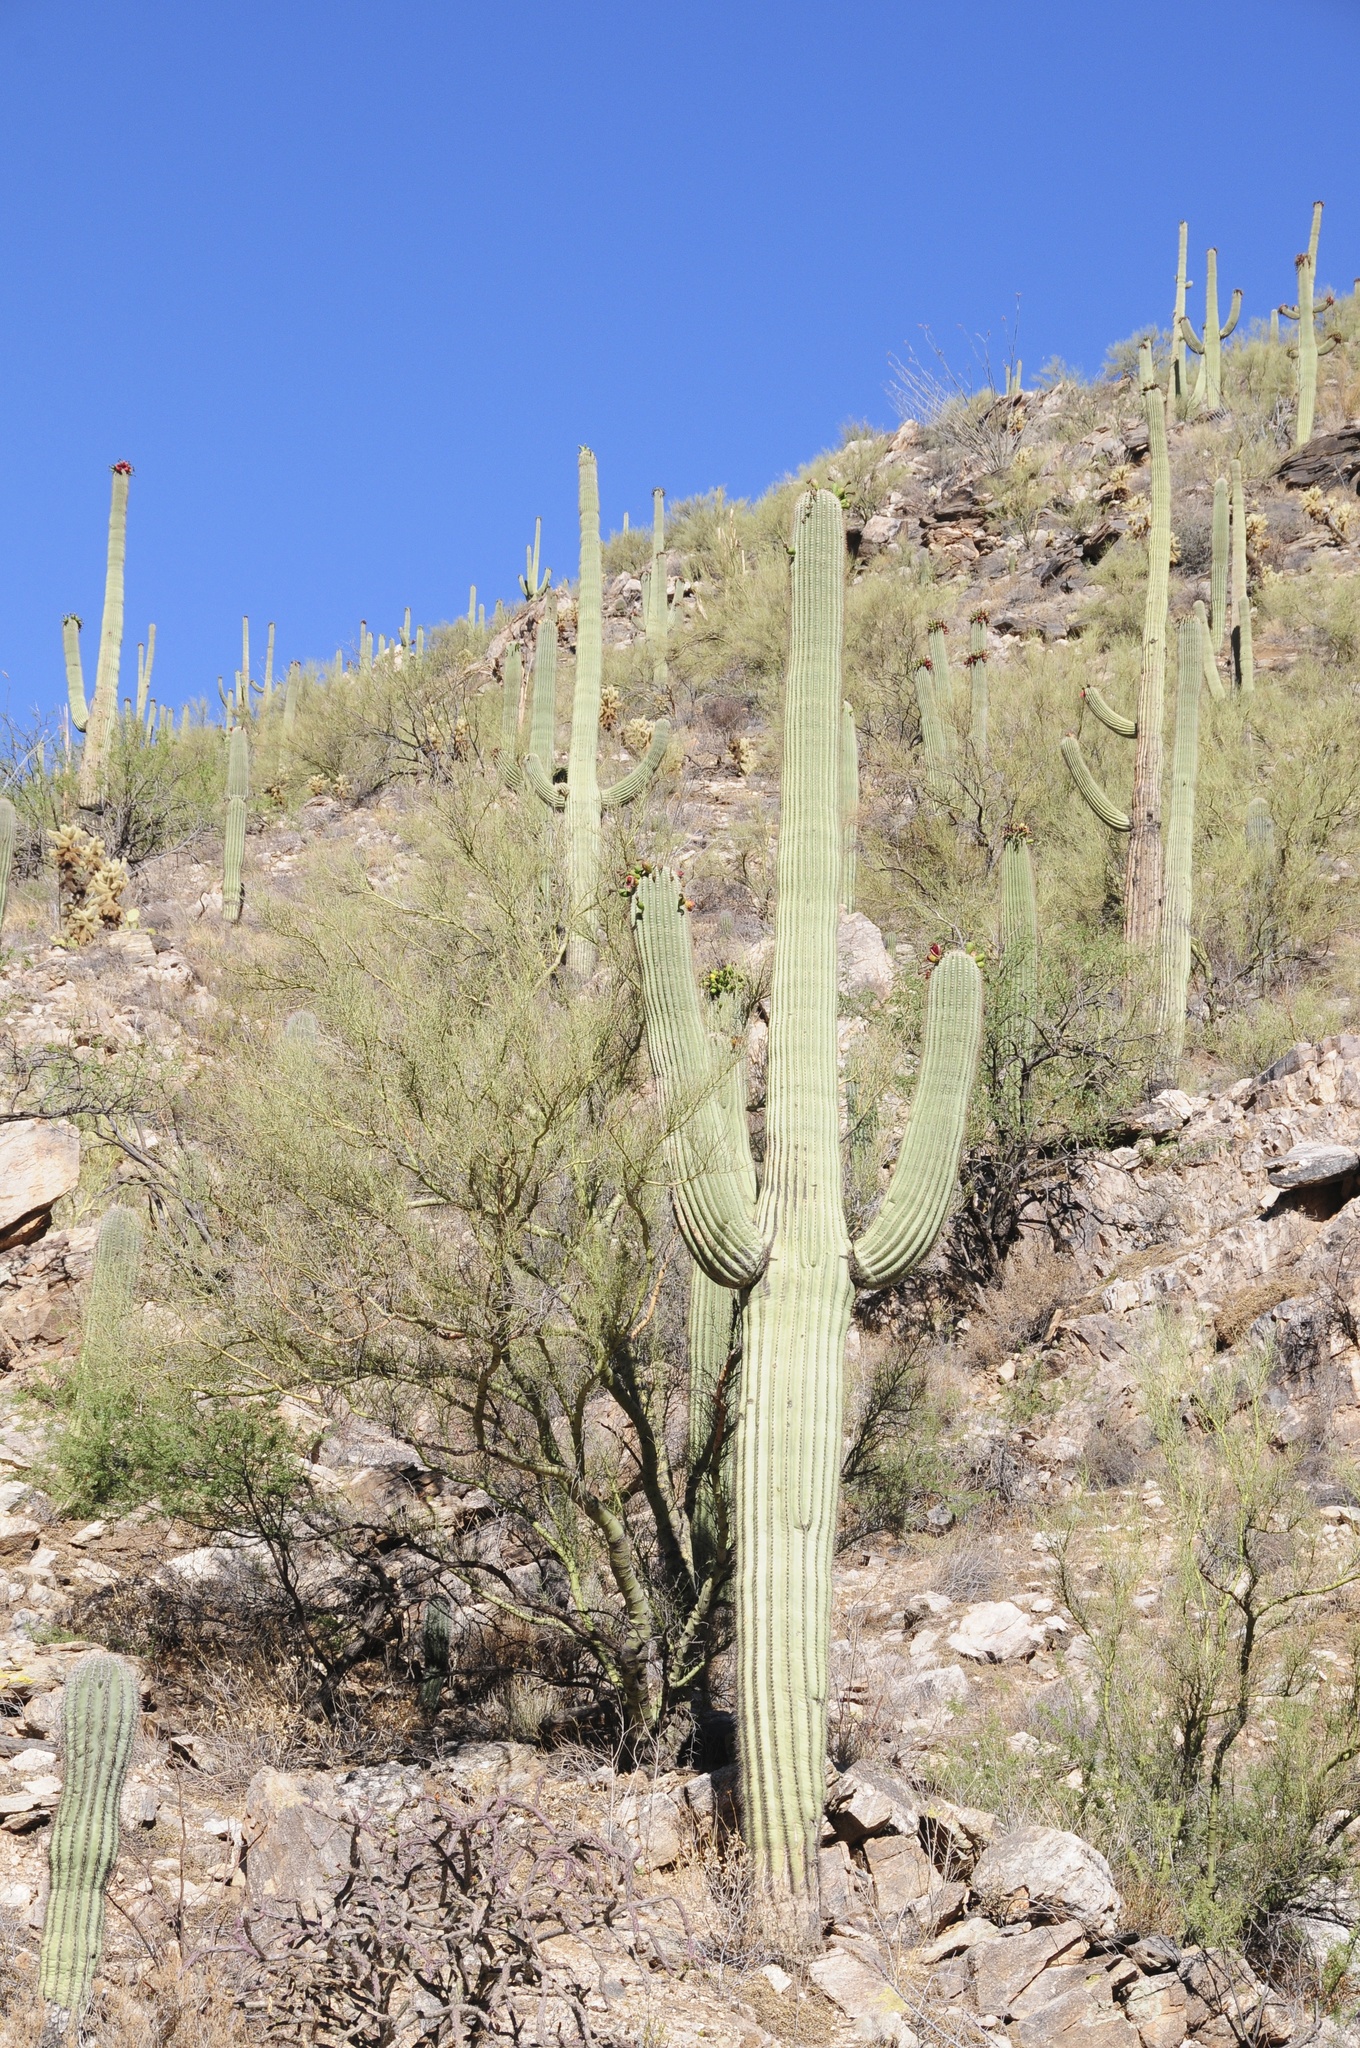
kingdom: Plantae
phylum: Tracheophyta
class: Magnoliopsida
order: Caryophyllales
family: Cactaceae
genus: Carnegiea
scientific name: Carnegiea gigantea
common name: Saguaro
